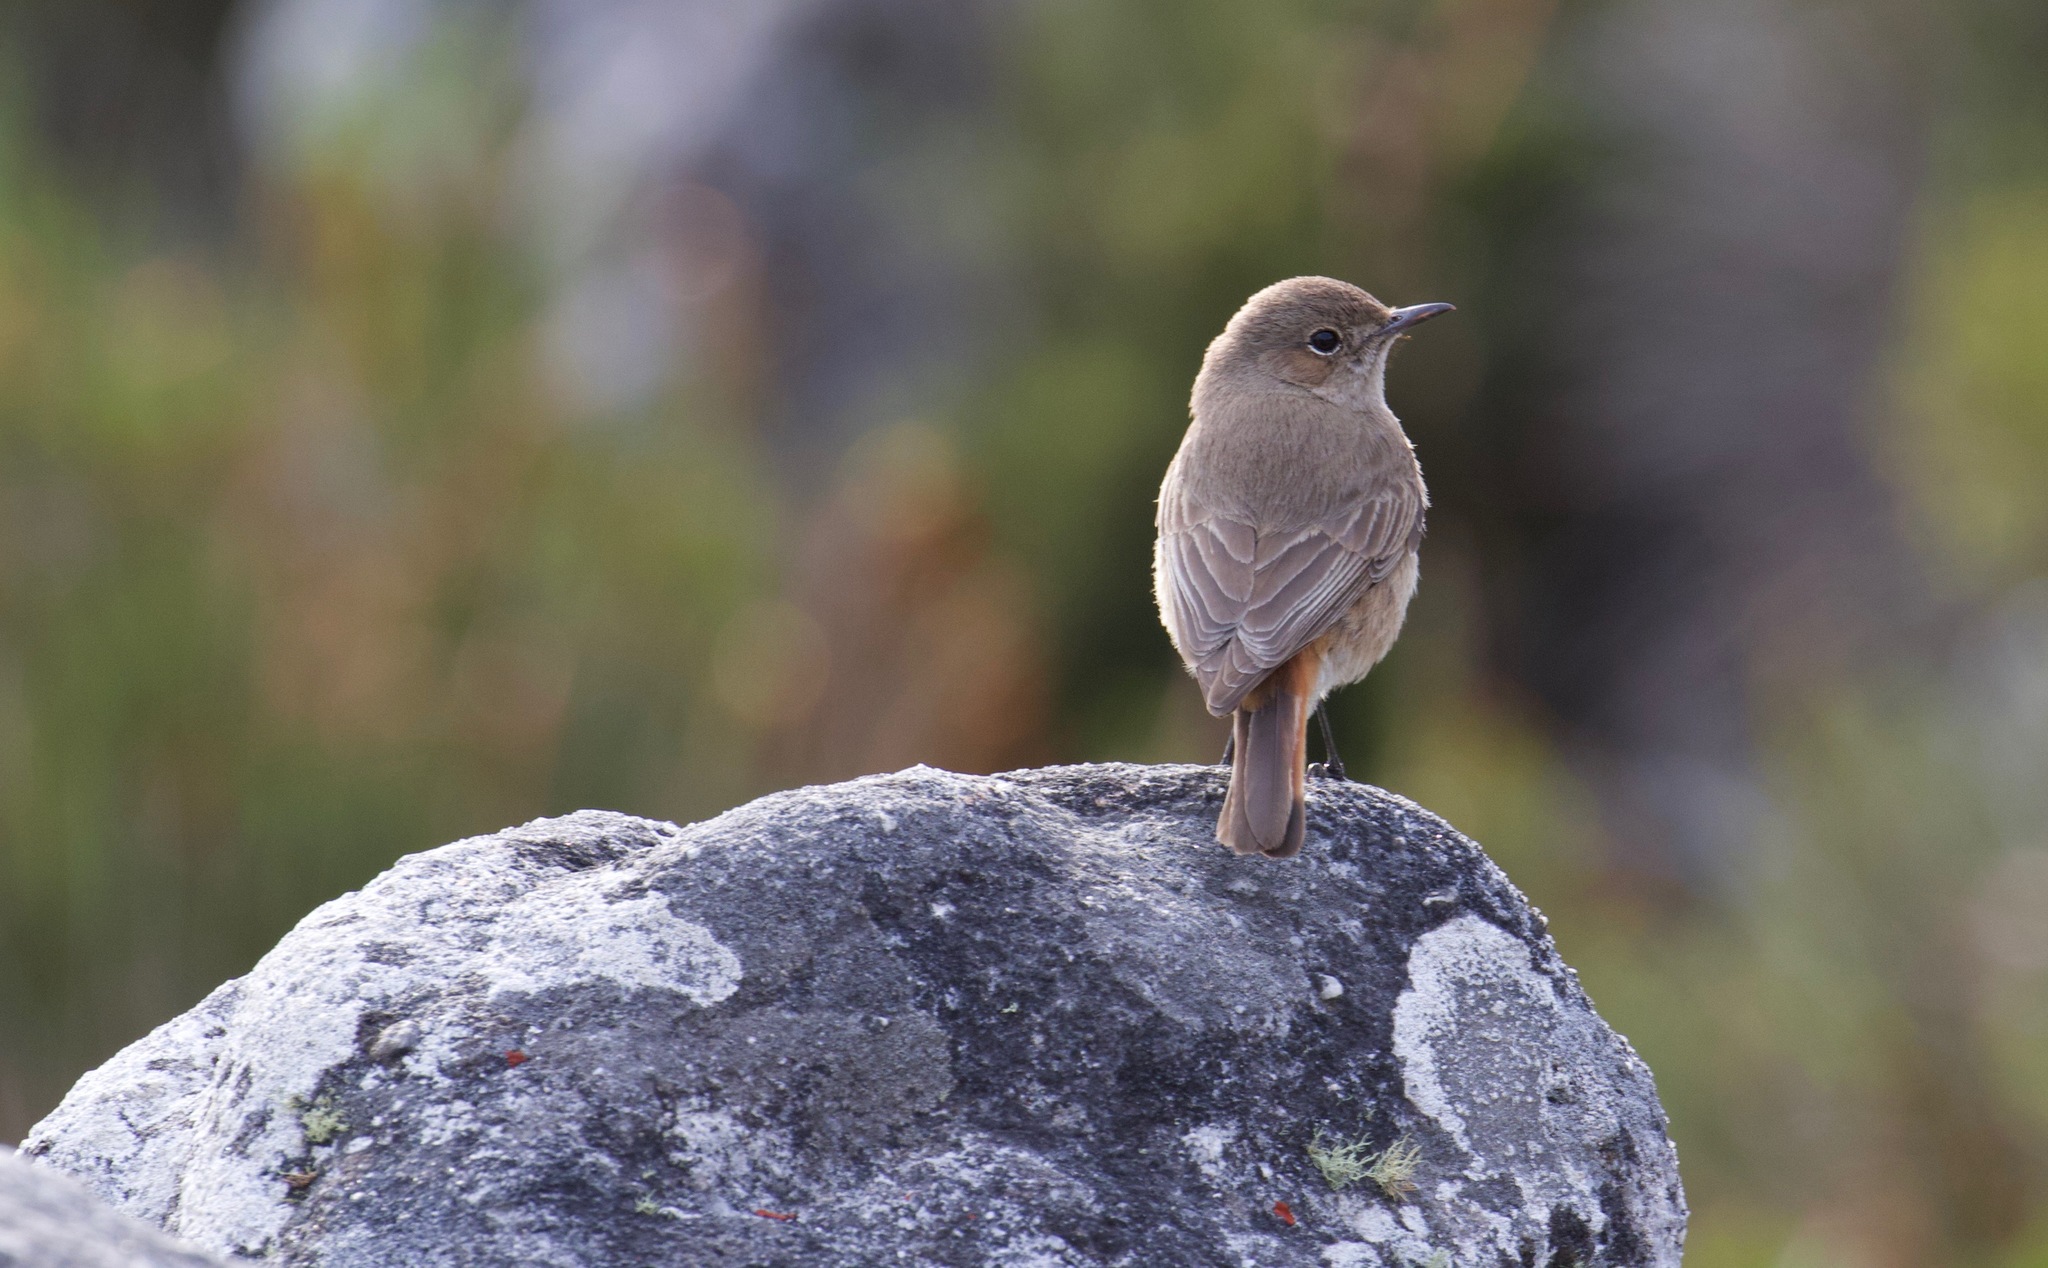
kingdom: Animalia
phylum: Chordata
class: Aves
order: Passeriformes
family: Muscicapidae
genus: Oenanthe
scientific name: Oenanthe familiaris
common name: Familiar chat
